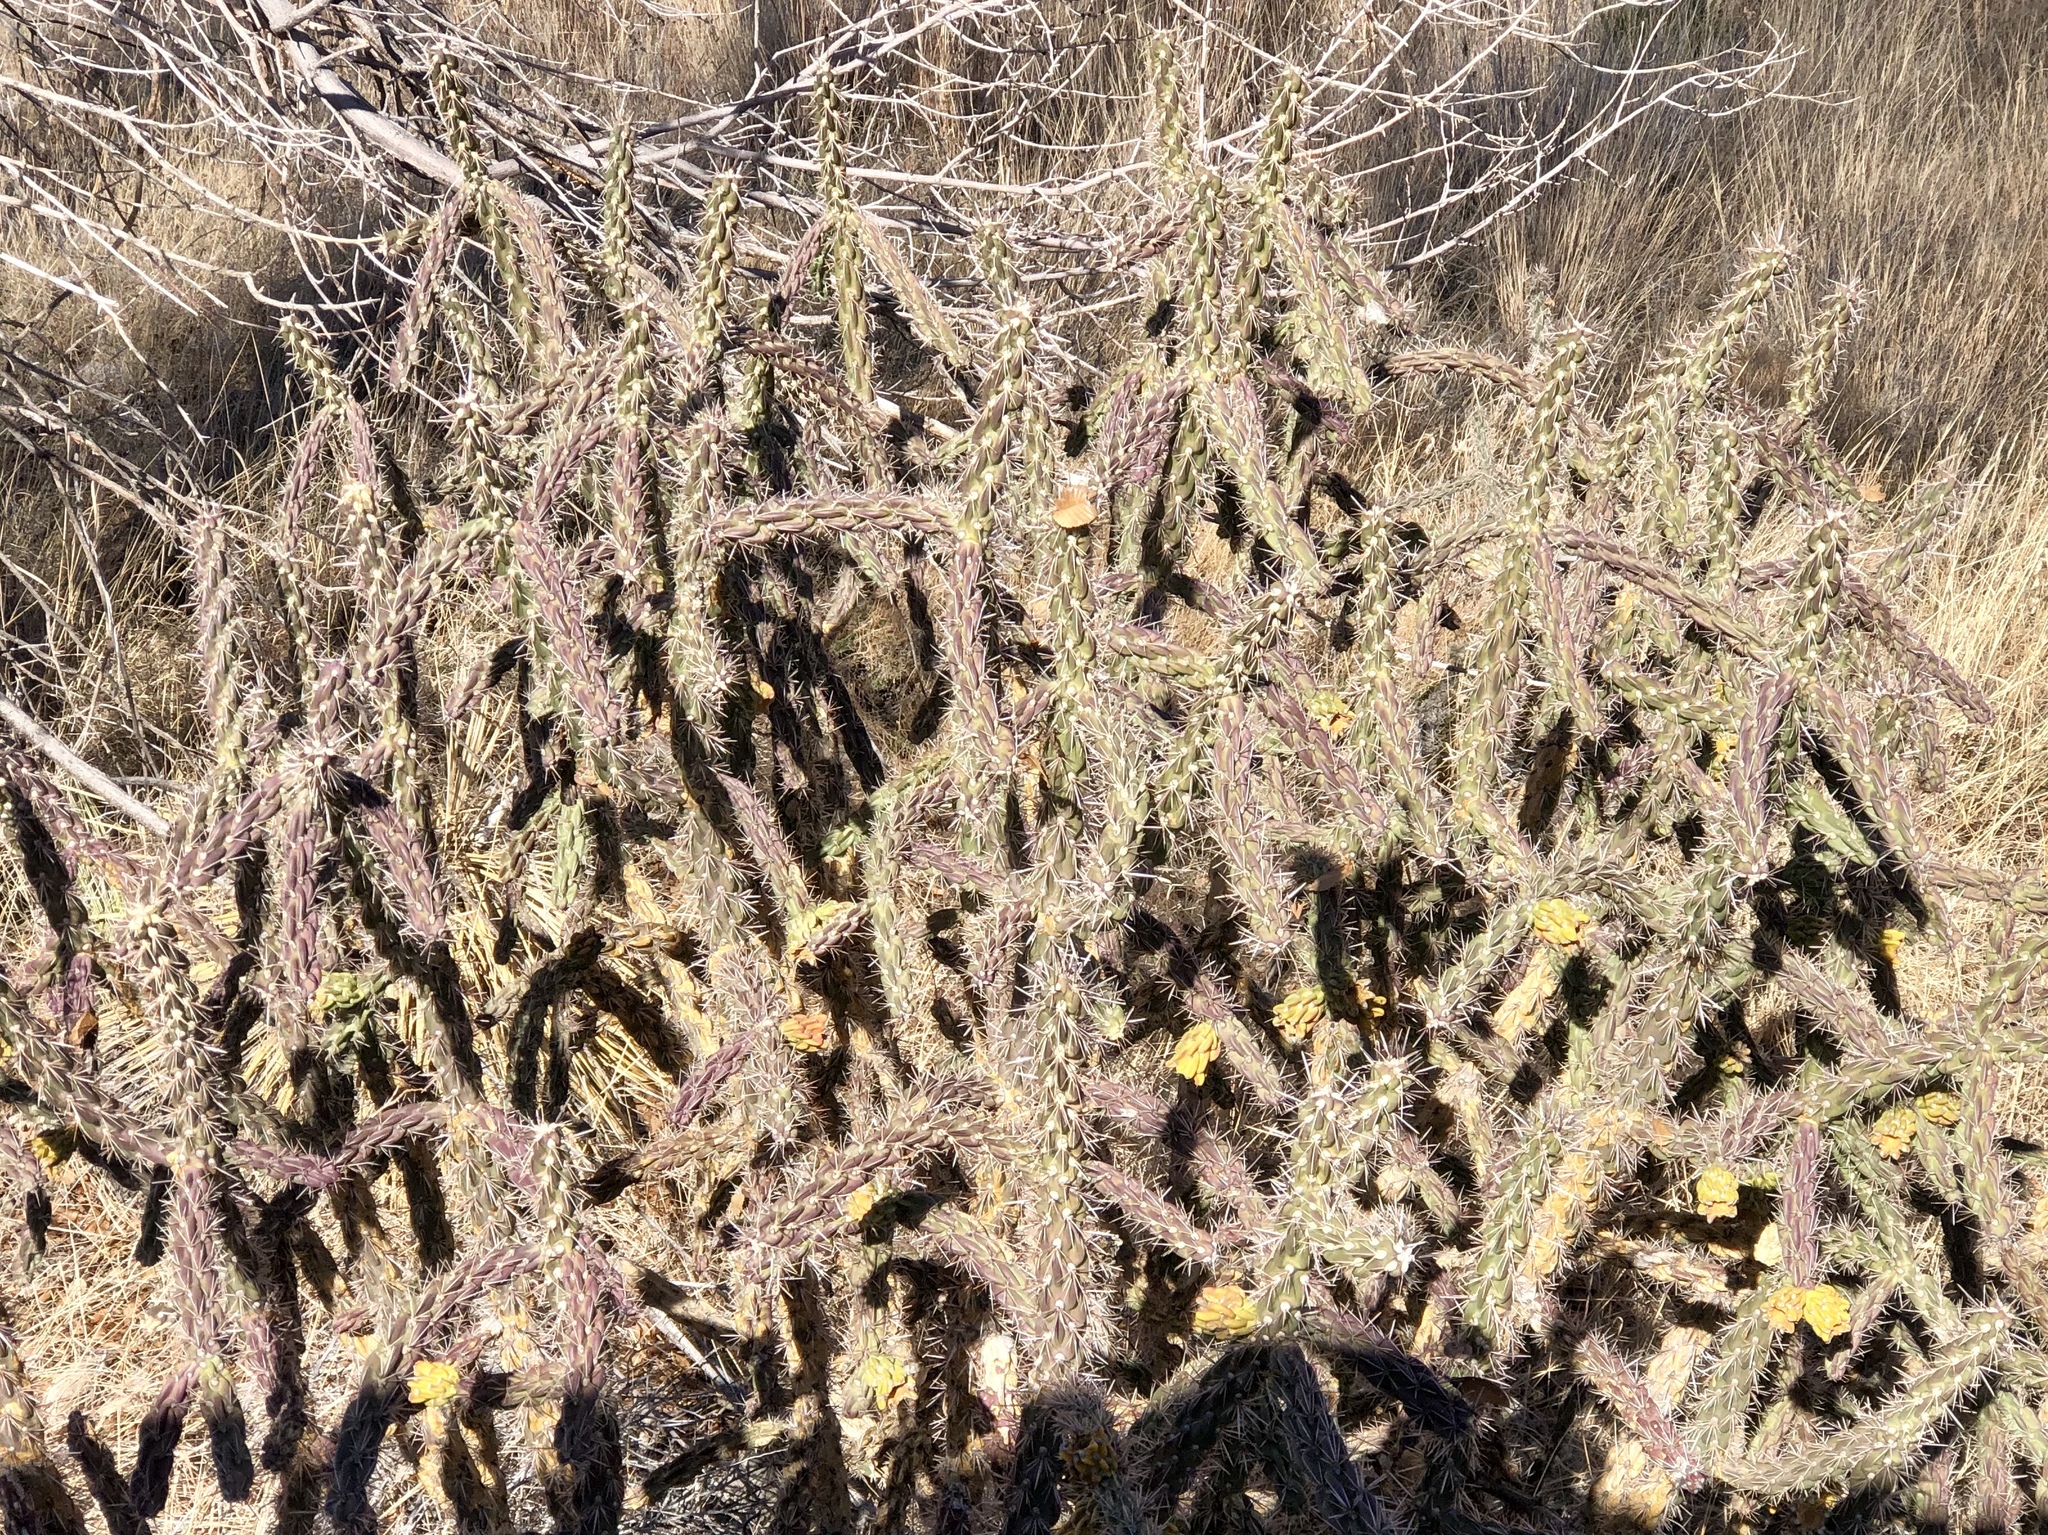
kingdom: Plantae
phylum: Tracheophyta
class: Magnoliopsida
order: Caryophyllales
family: Cactaceae
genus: Cylindropuntia
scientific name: Cylindropuntia imbricata
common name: Candelabrum cactus
